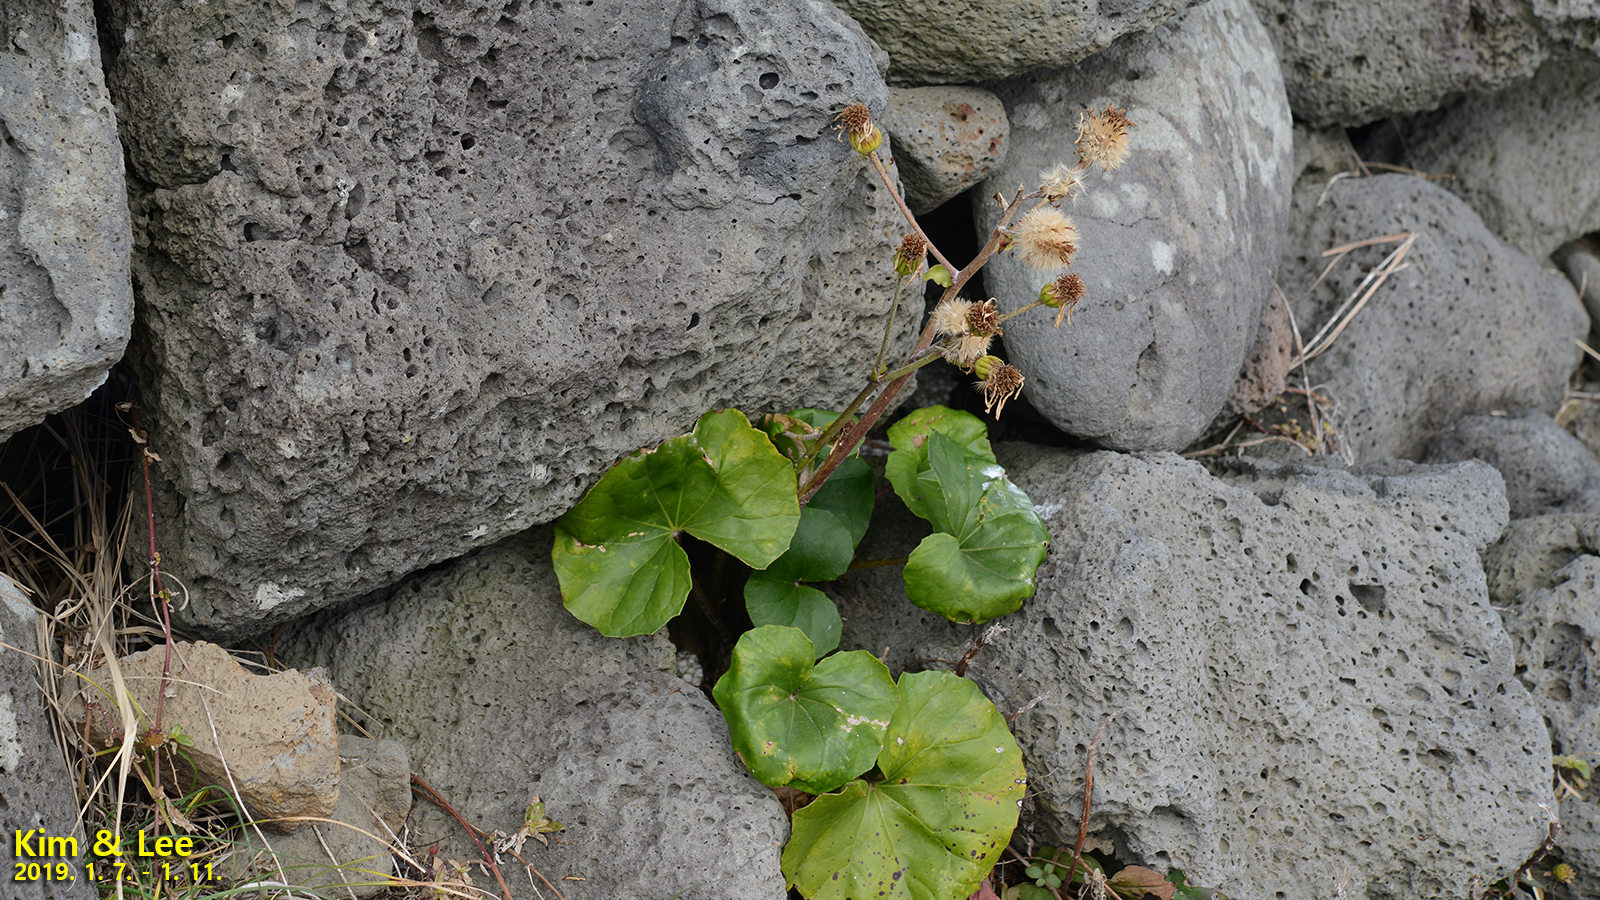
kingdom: Plantae
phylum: Tracheophyta
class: Magnoliopsida
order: Asterales
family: Asteraceae
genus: Farfugium
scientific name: Farfugium japonicum
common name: Leopardplant
